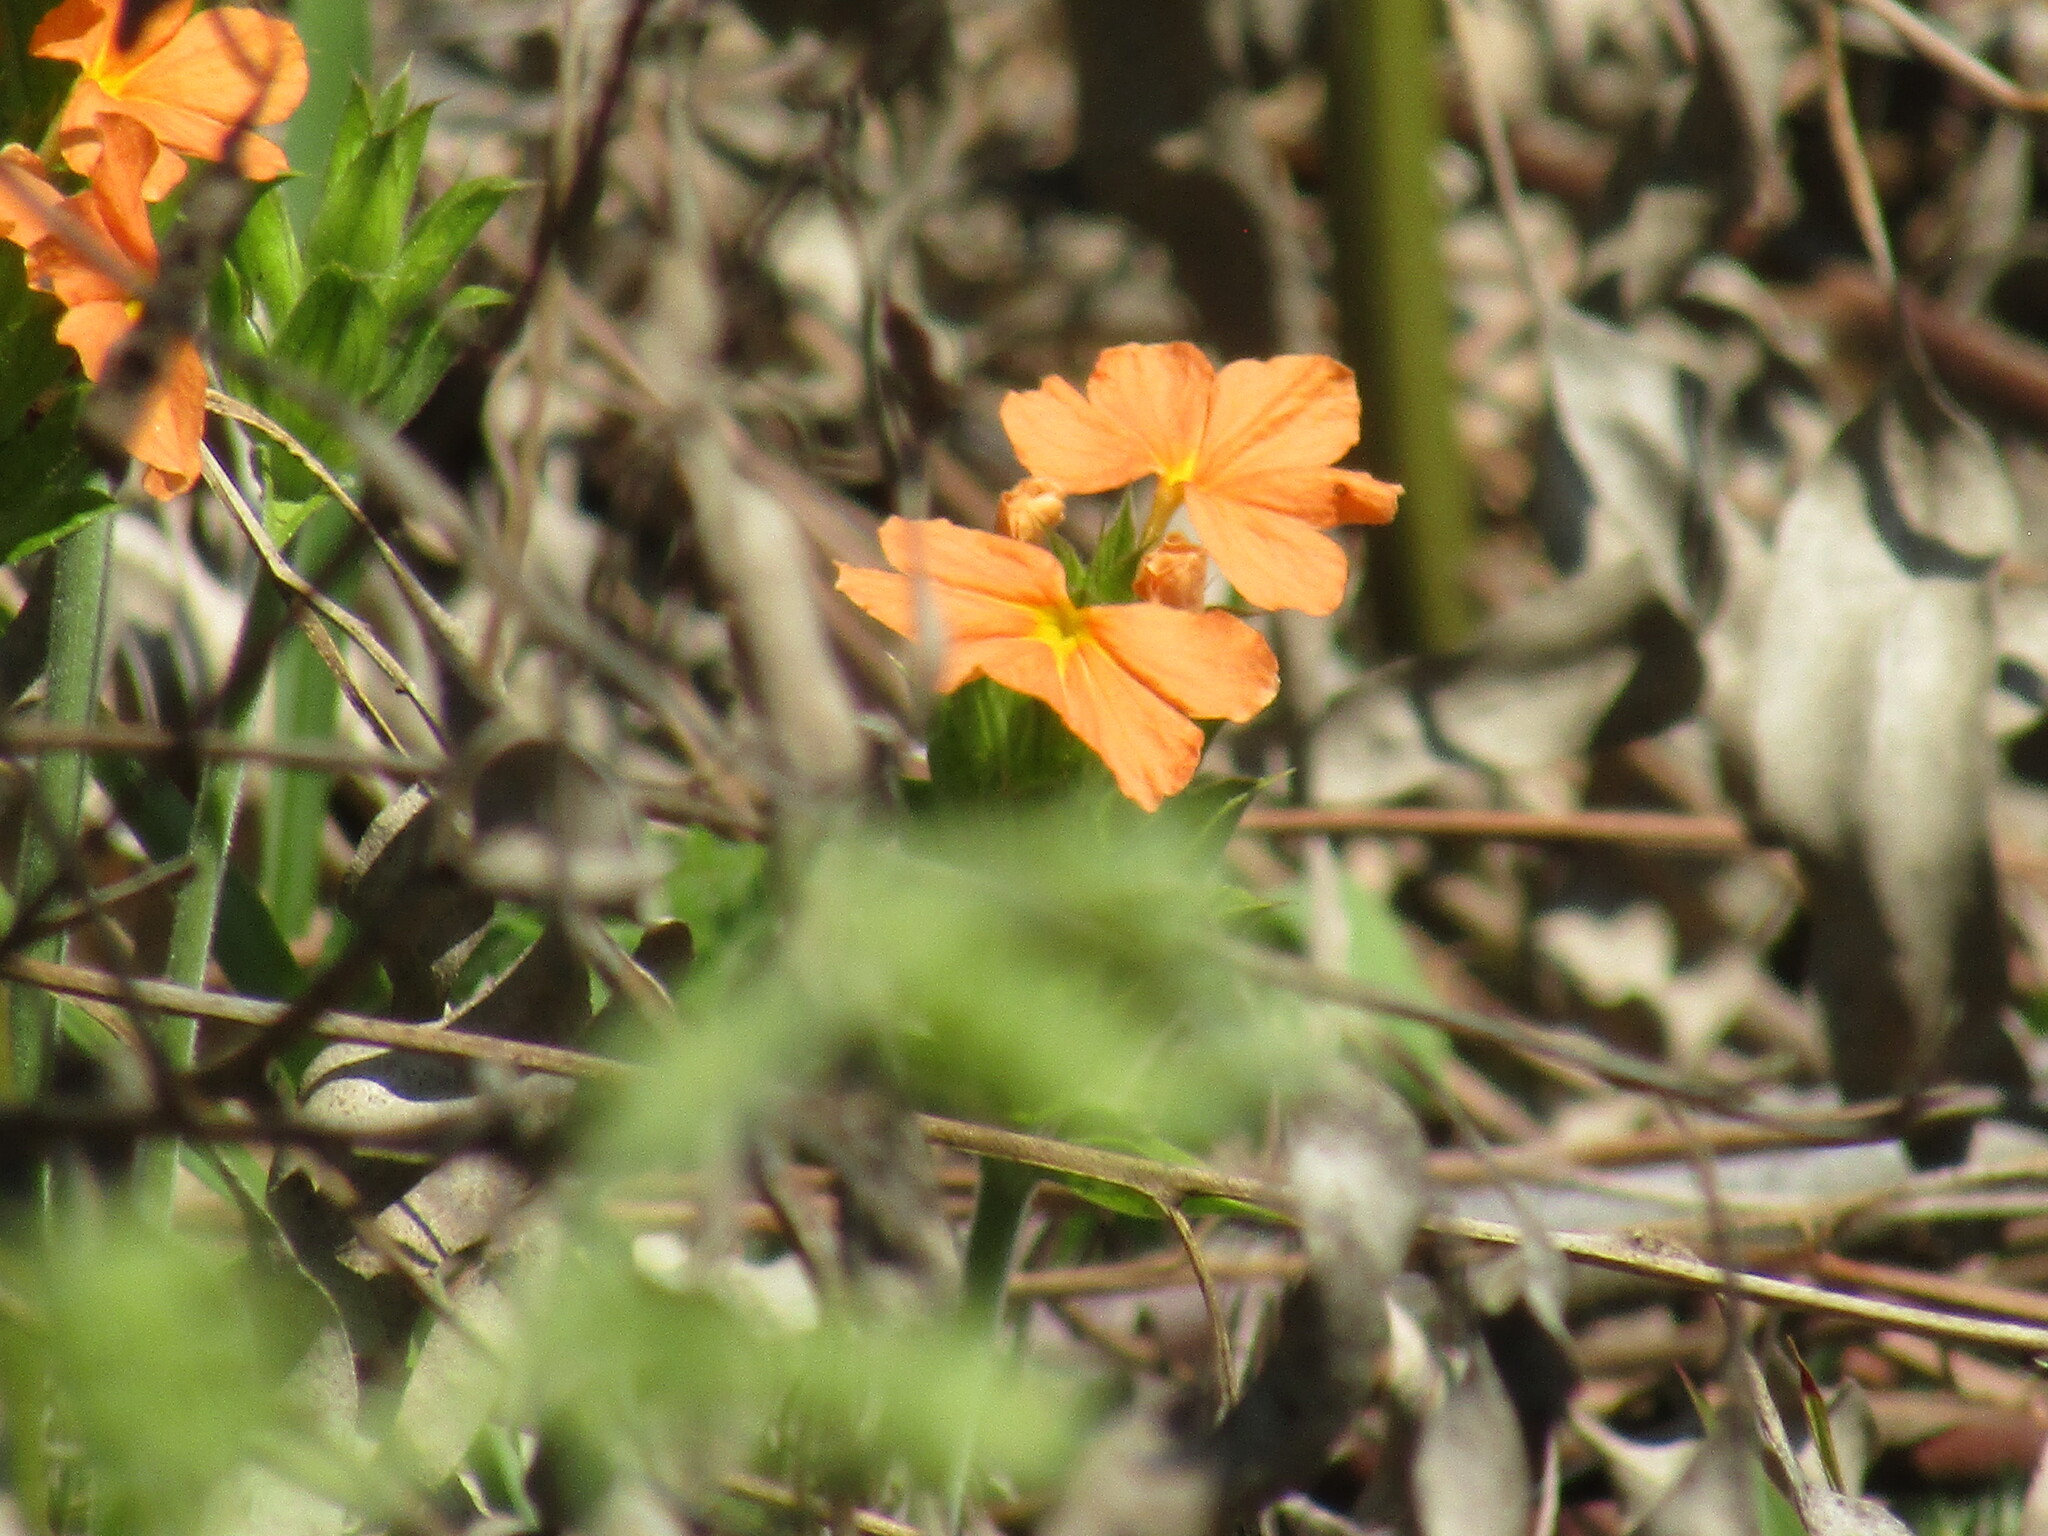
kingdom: Plantae
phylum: Tracheophyta
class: Magnoliopsida
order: Lamiales
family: Acanthaceae
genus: Crossandra
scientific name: Crossandra greenstockii
